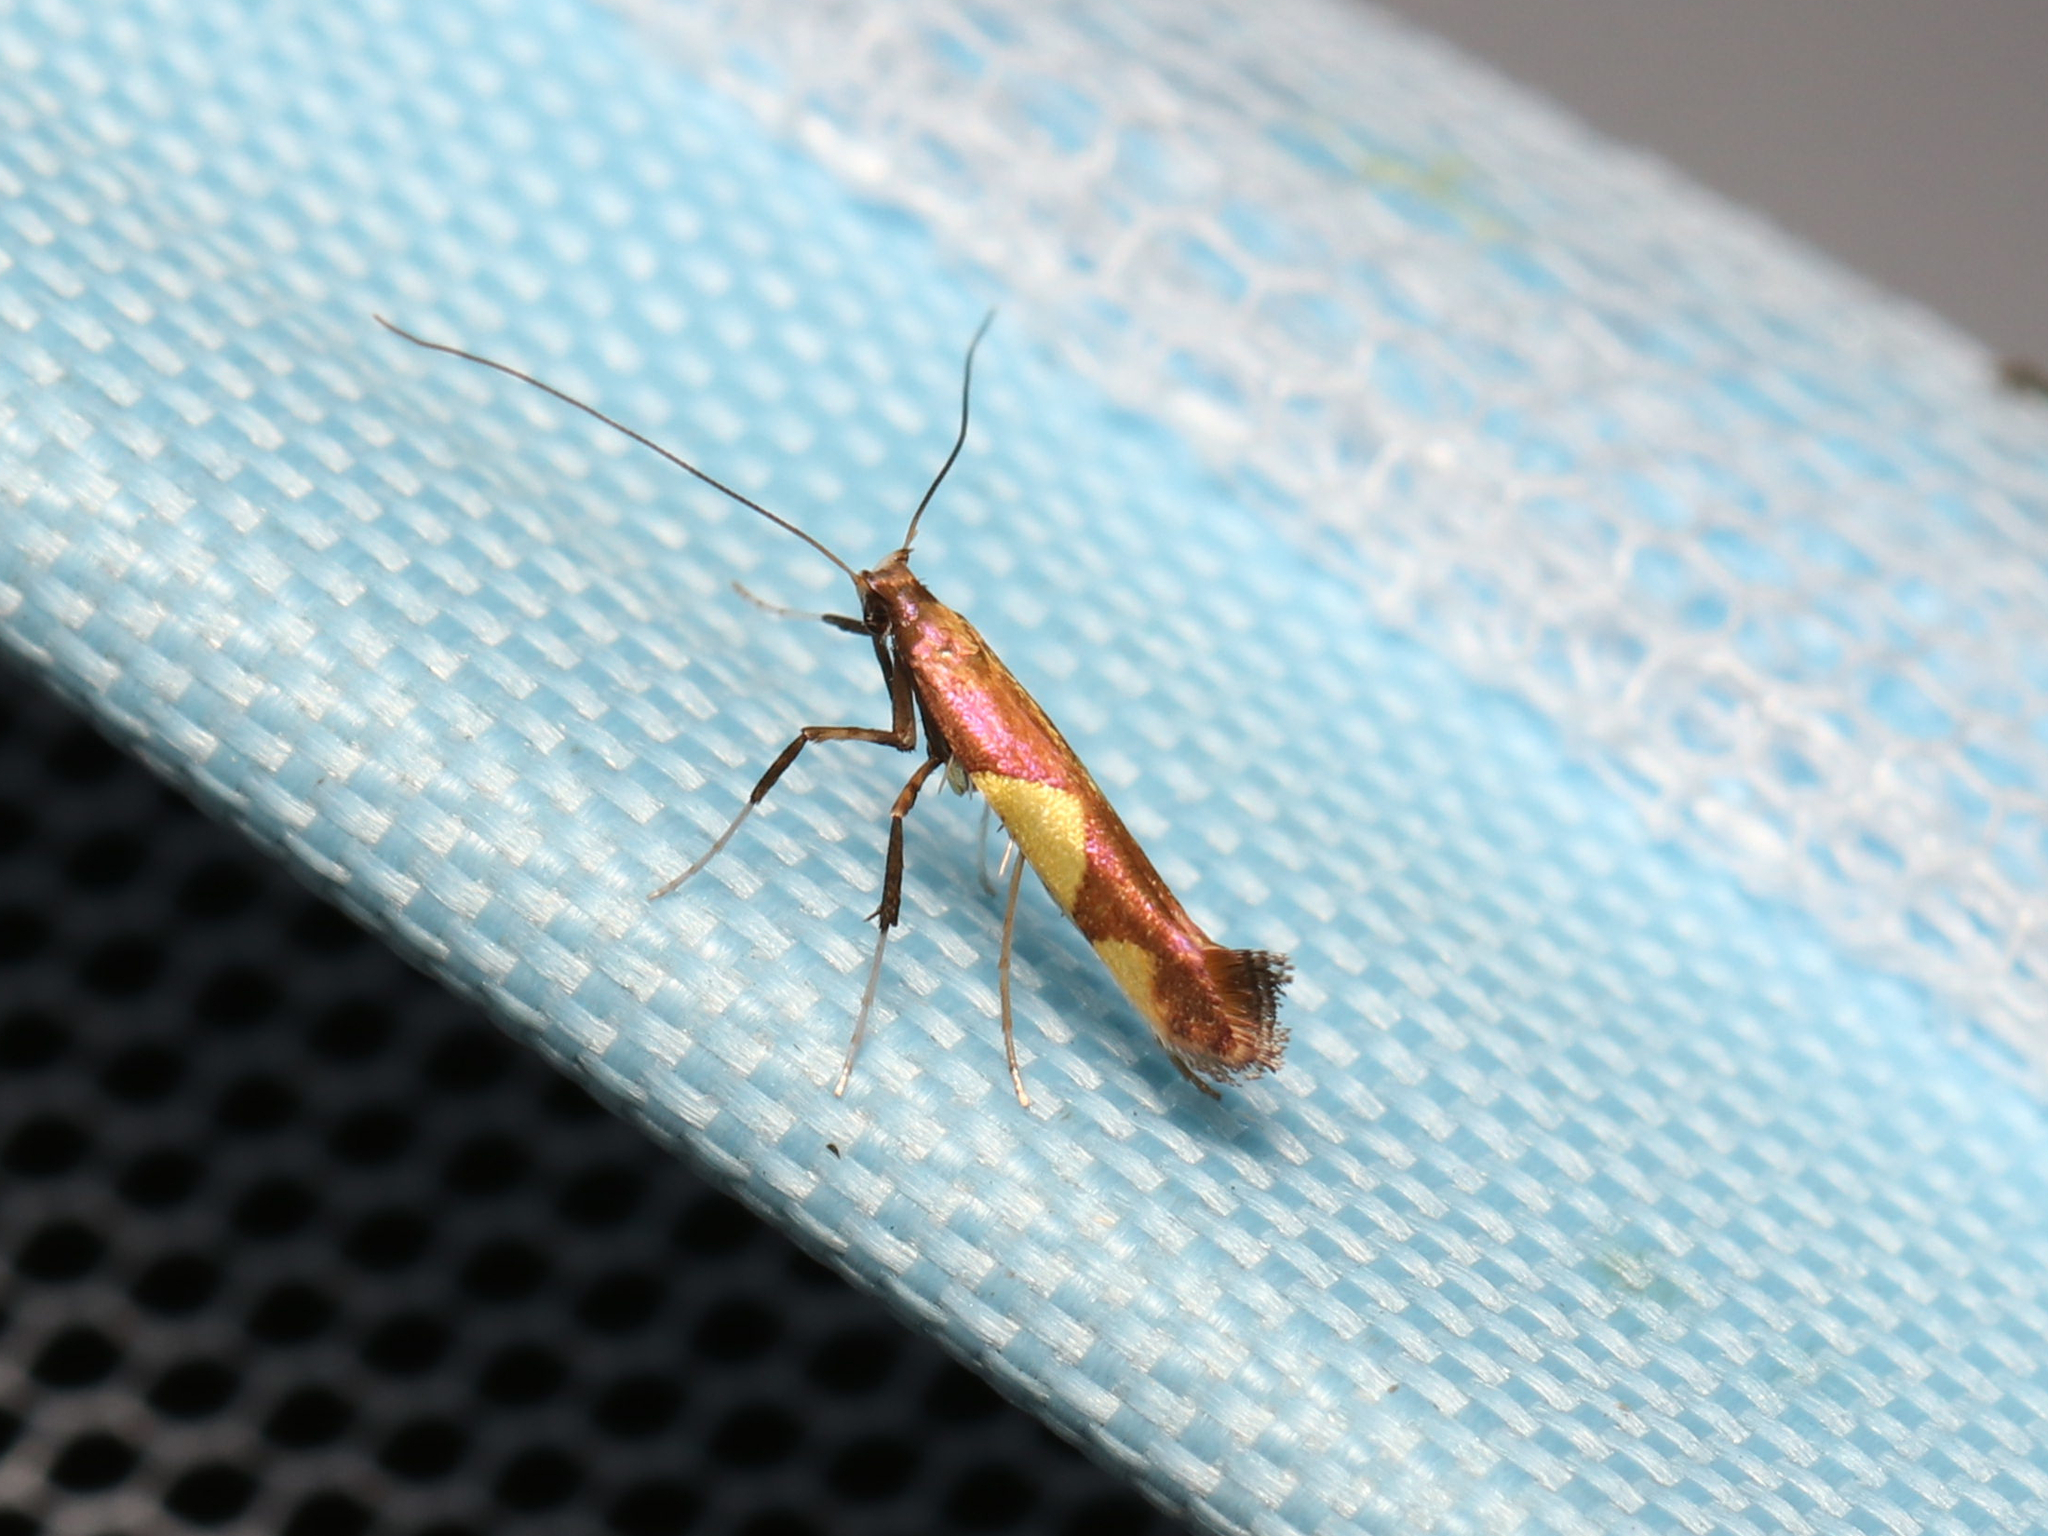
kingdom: Animalia
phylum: Arthropoda
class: Insecta
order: Lepidoptera
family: Gracillariidae
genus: Caloptilia
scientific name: Caloptilia bimaculatella
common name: Maple caloptilia moth
